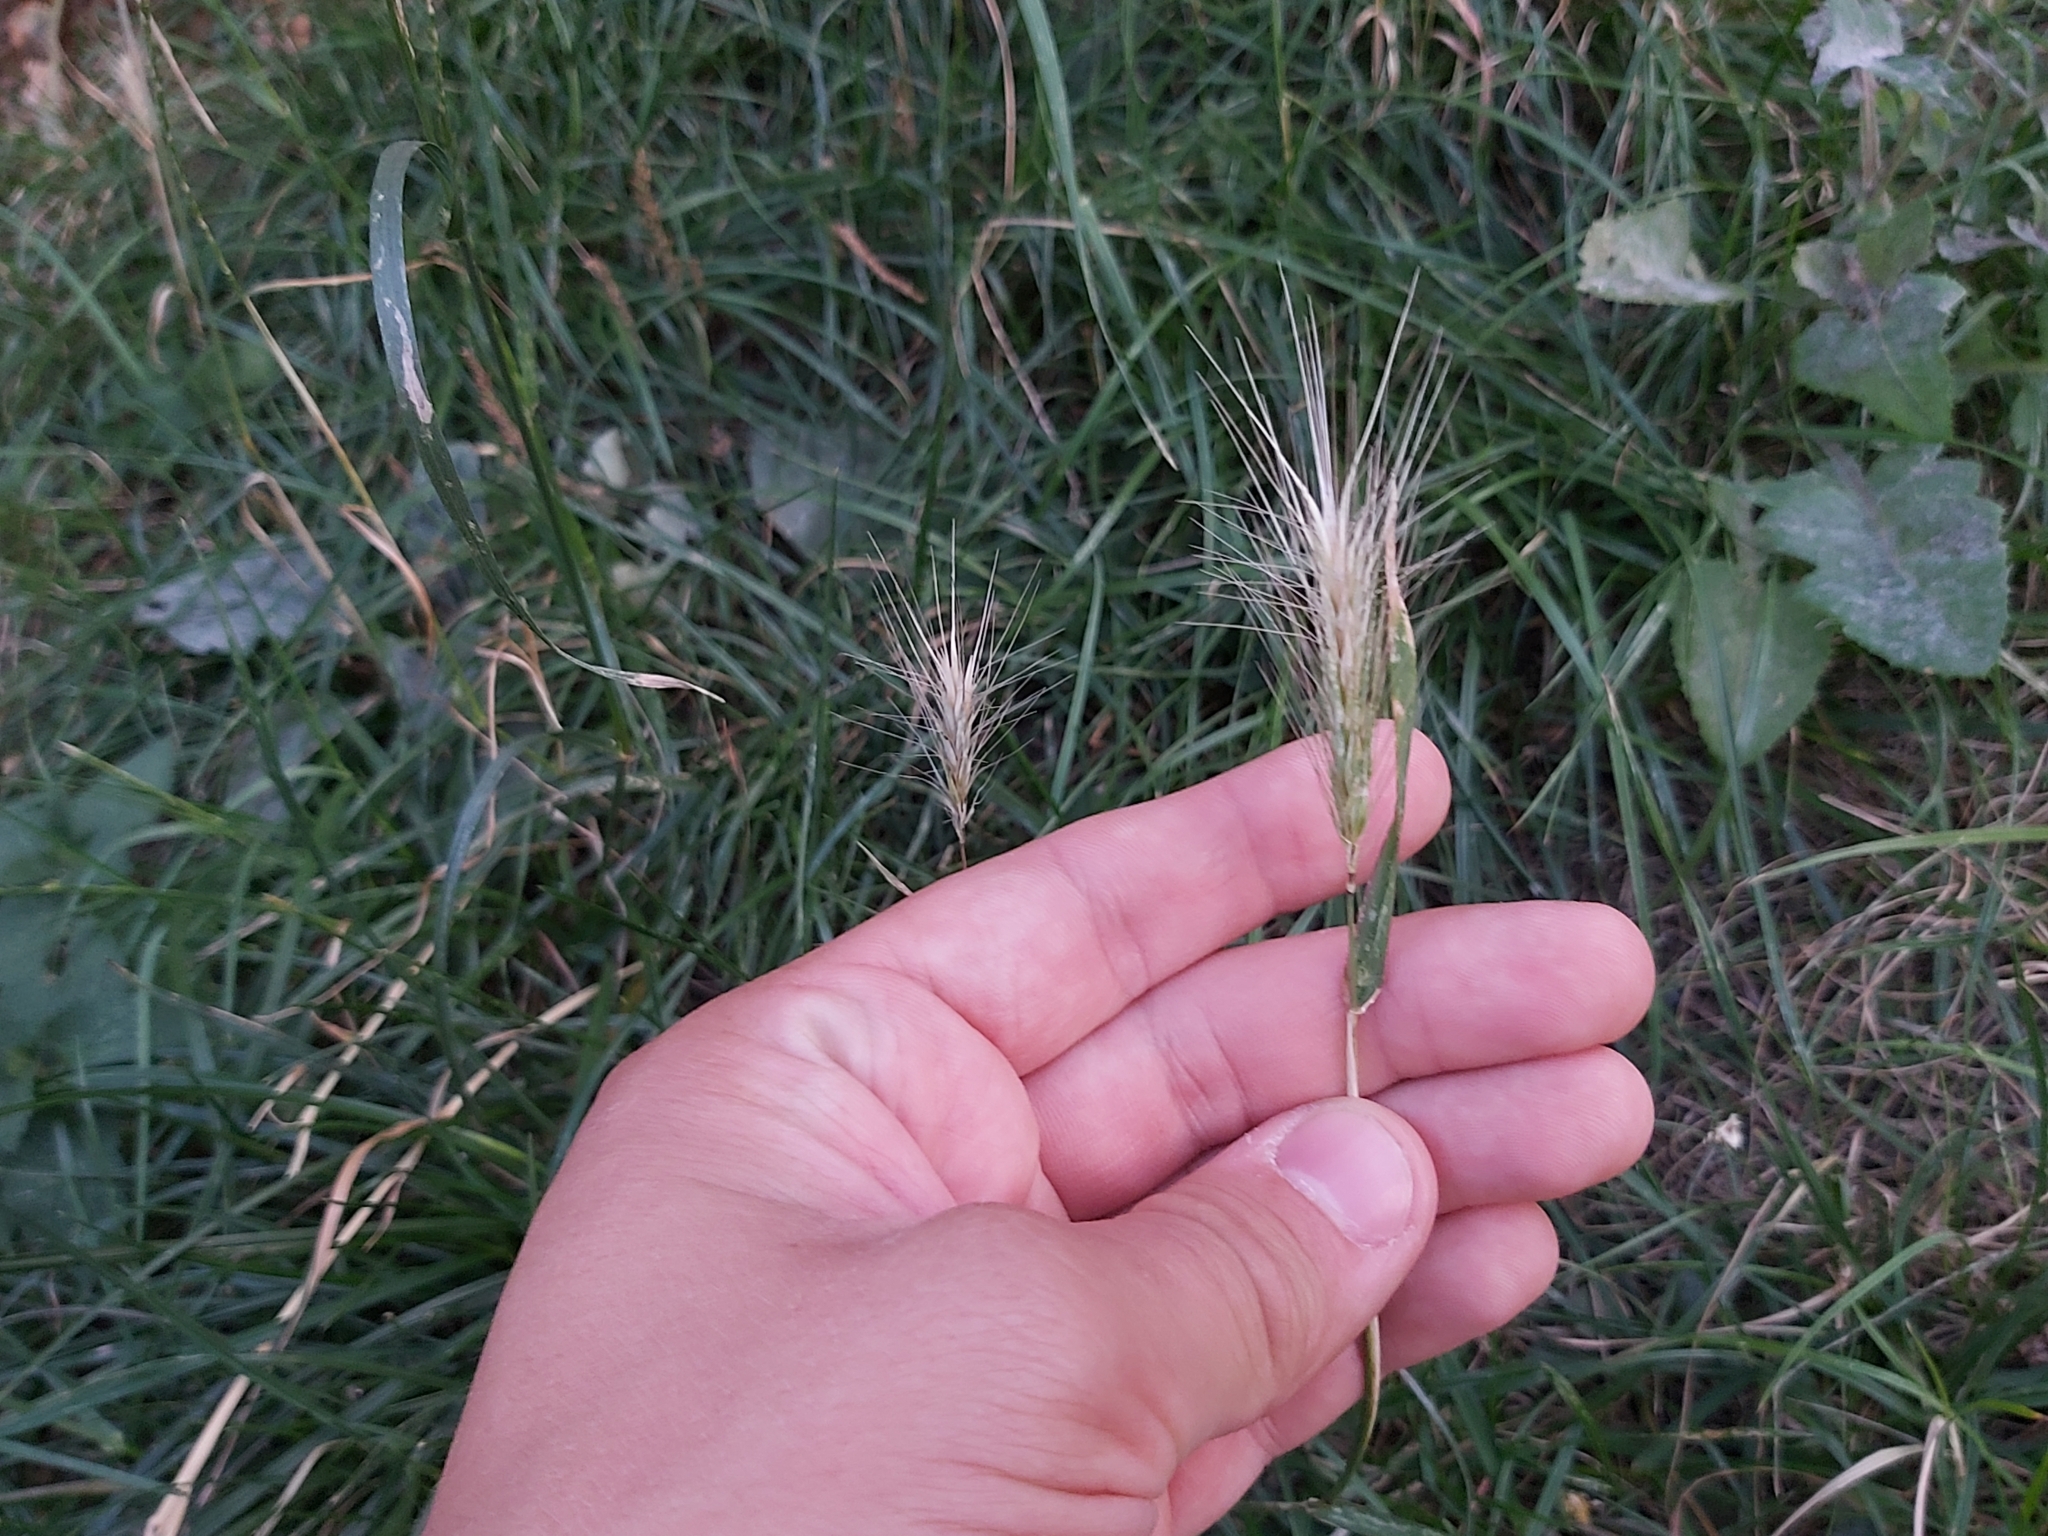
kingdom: Plantae
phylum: Tracheophyta
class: Liliopsida
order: Poales
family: Poaceae
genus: Hordeum
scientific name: Hordeum murinum
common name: Wall barley
